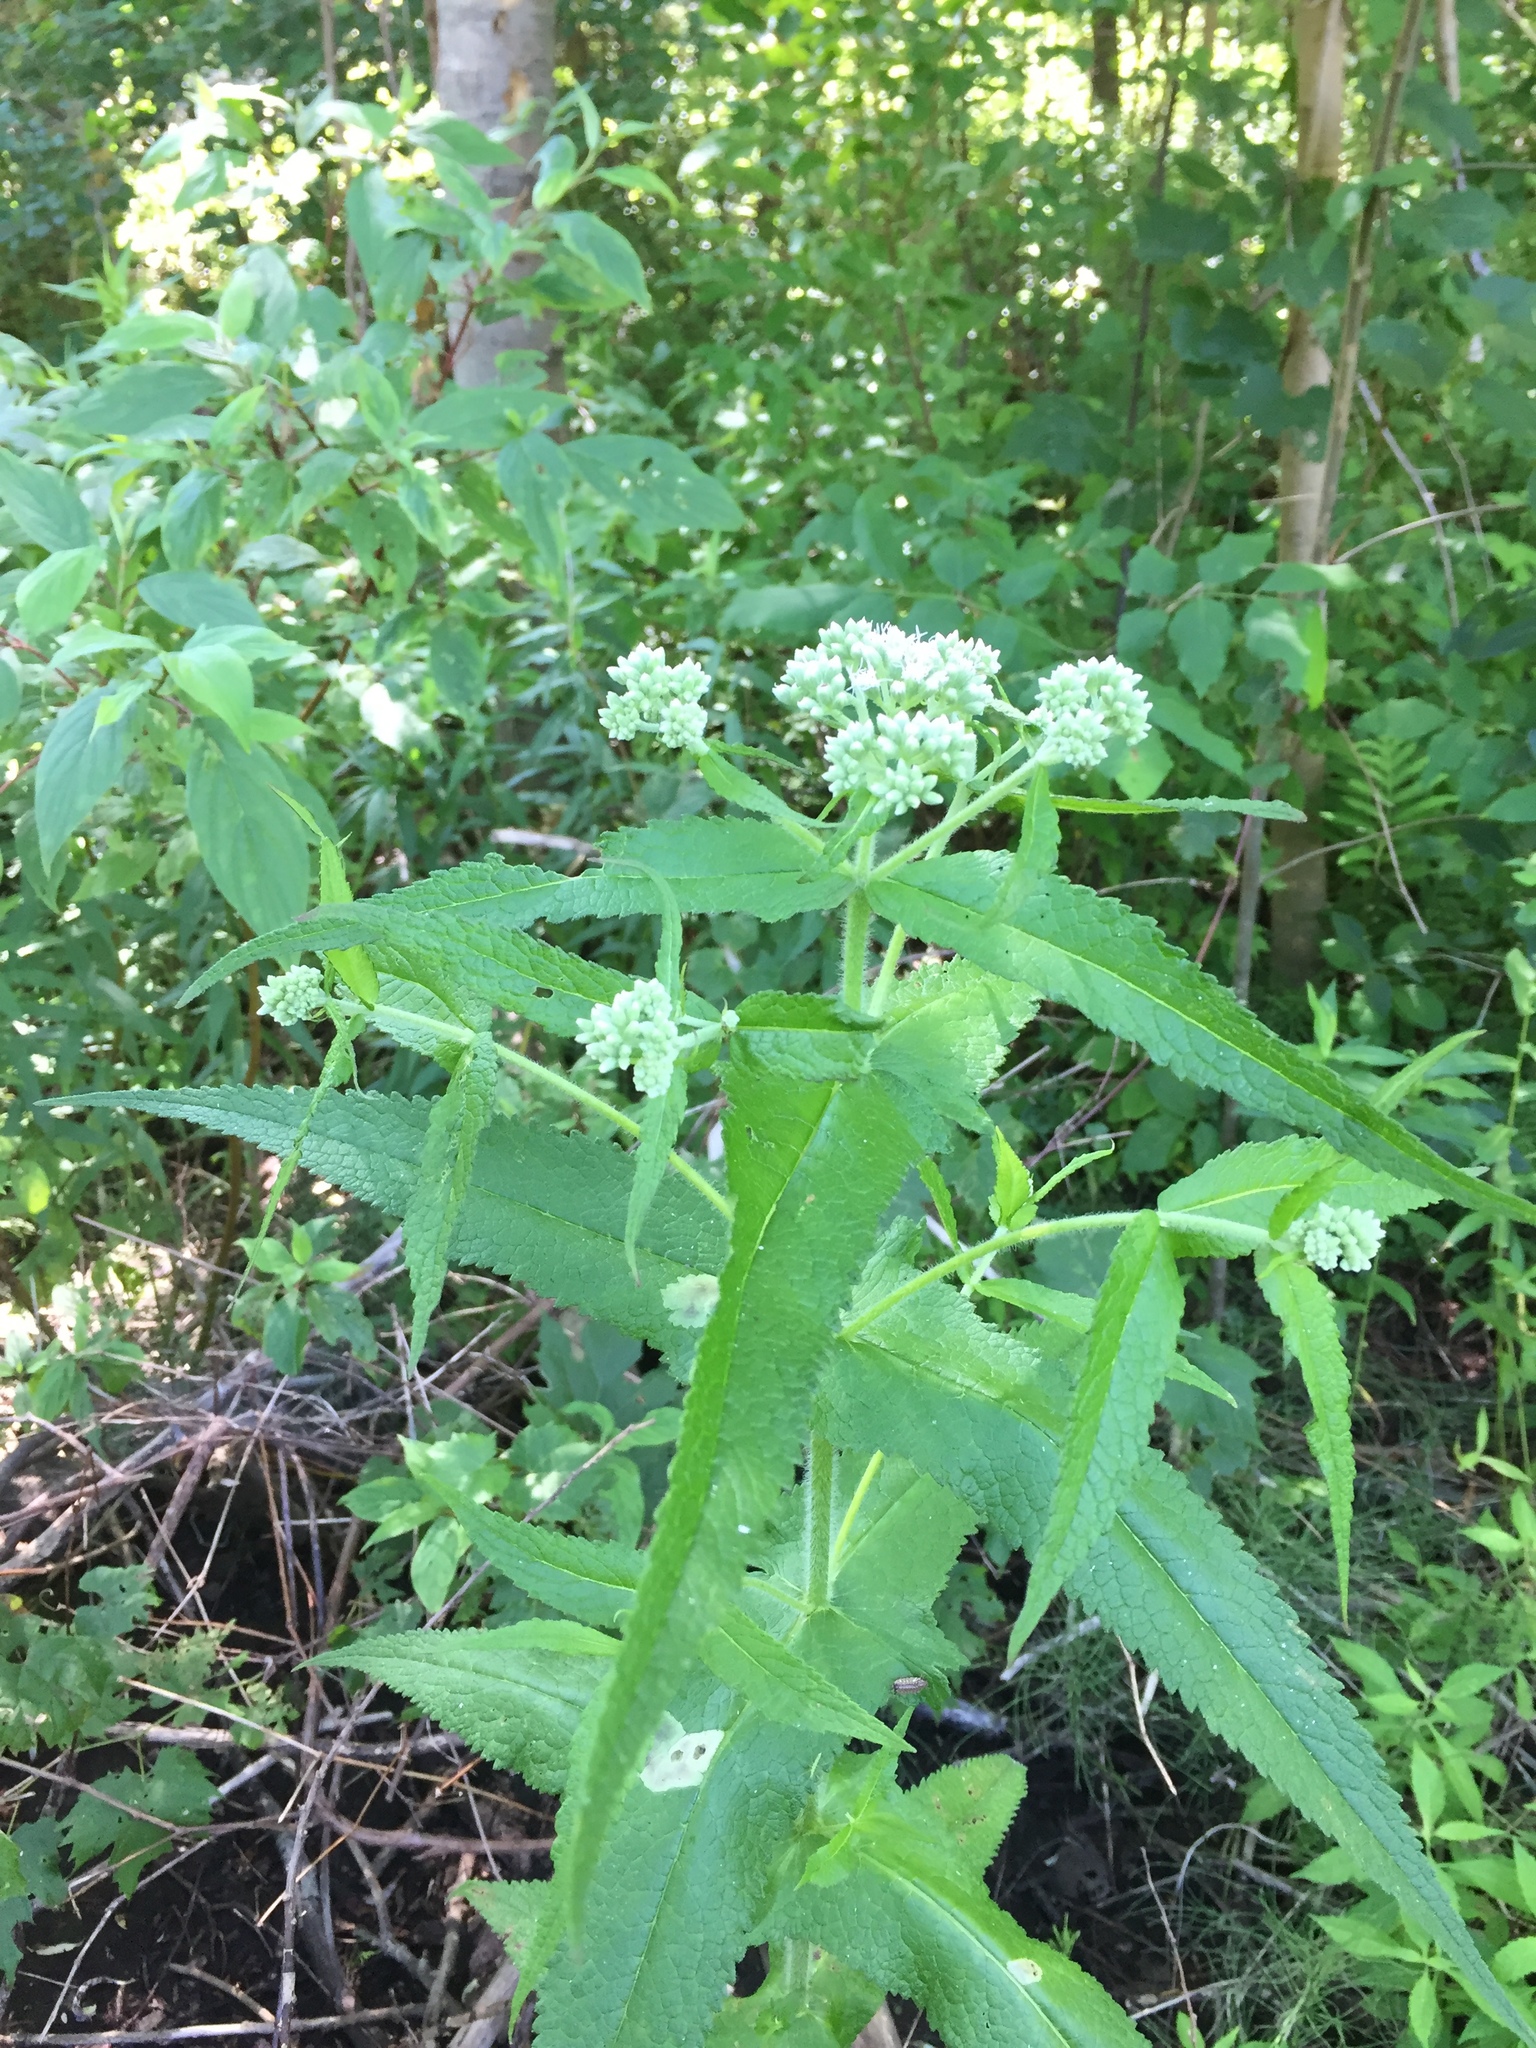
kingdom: Plantae
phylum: Tracheophyta
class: Magnoliopsida
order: Asterales
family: Asteraceae
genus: Eupatorium
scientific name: Eupatorium perfoliatum
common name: Boneset
